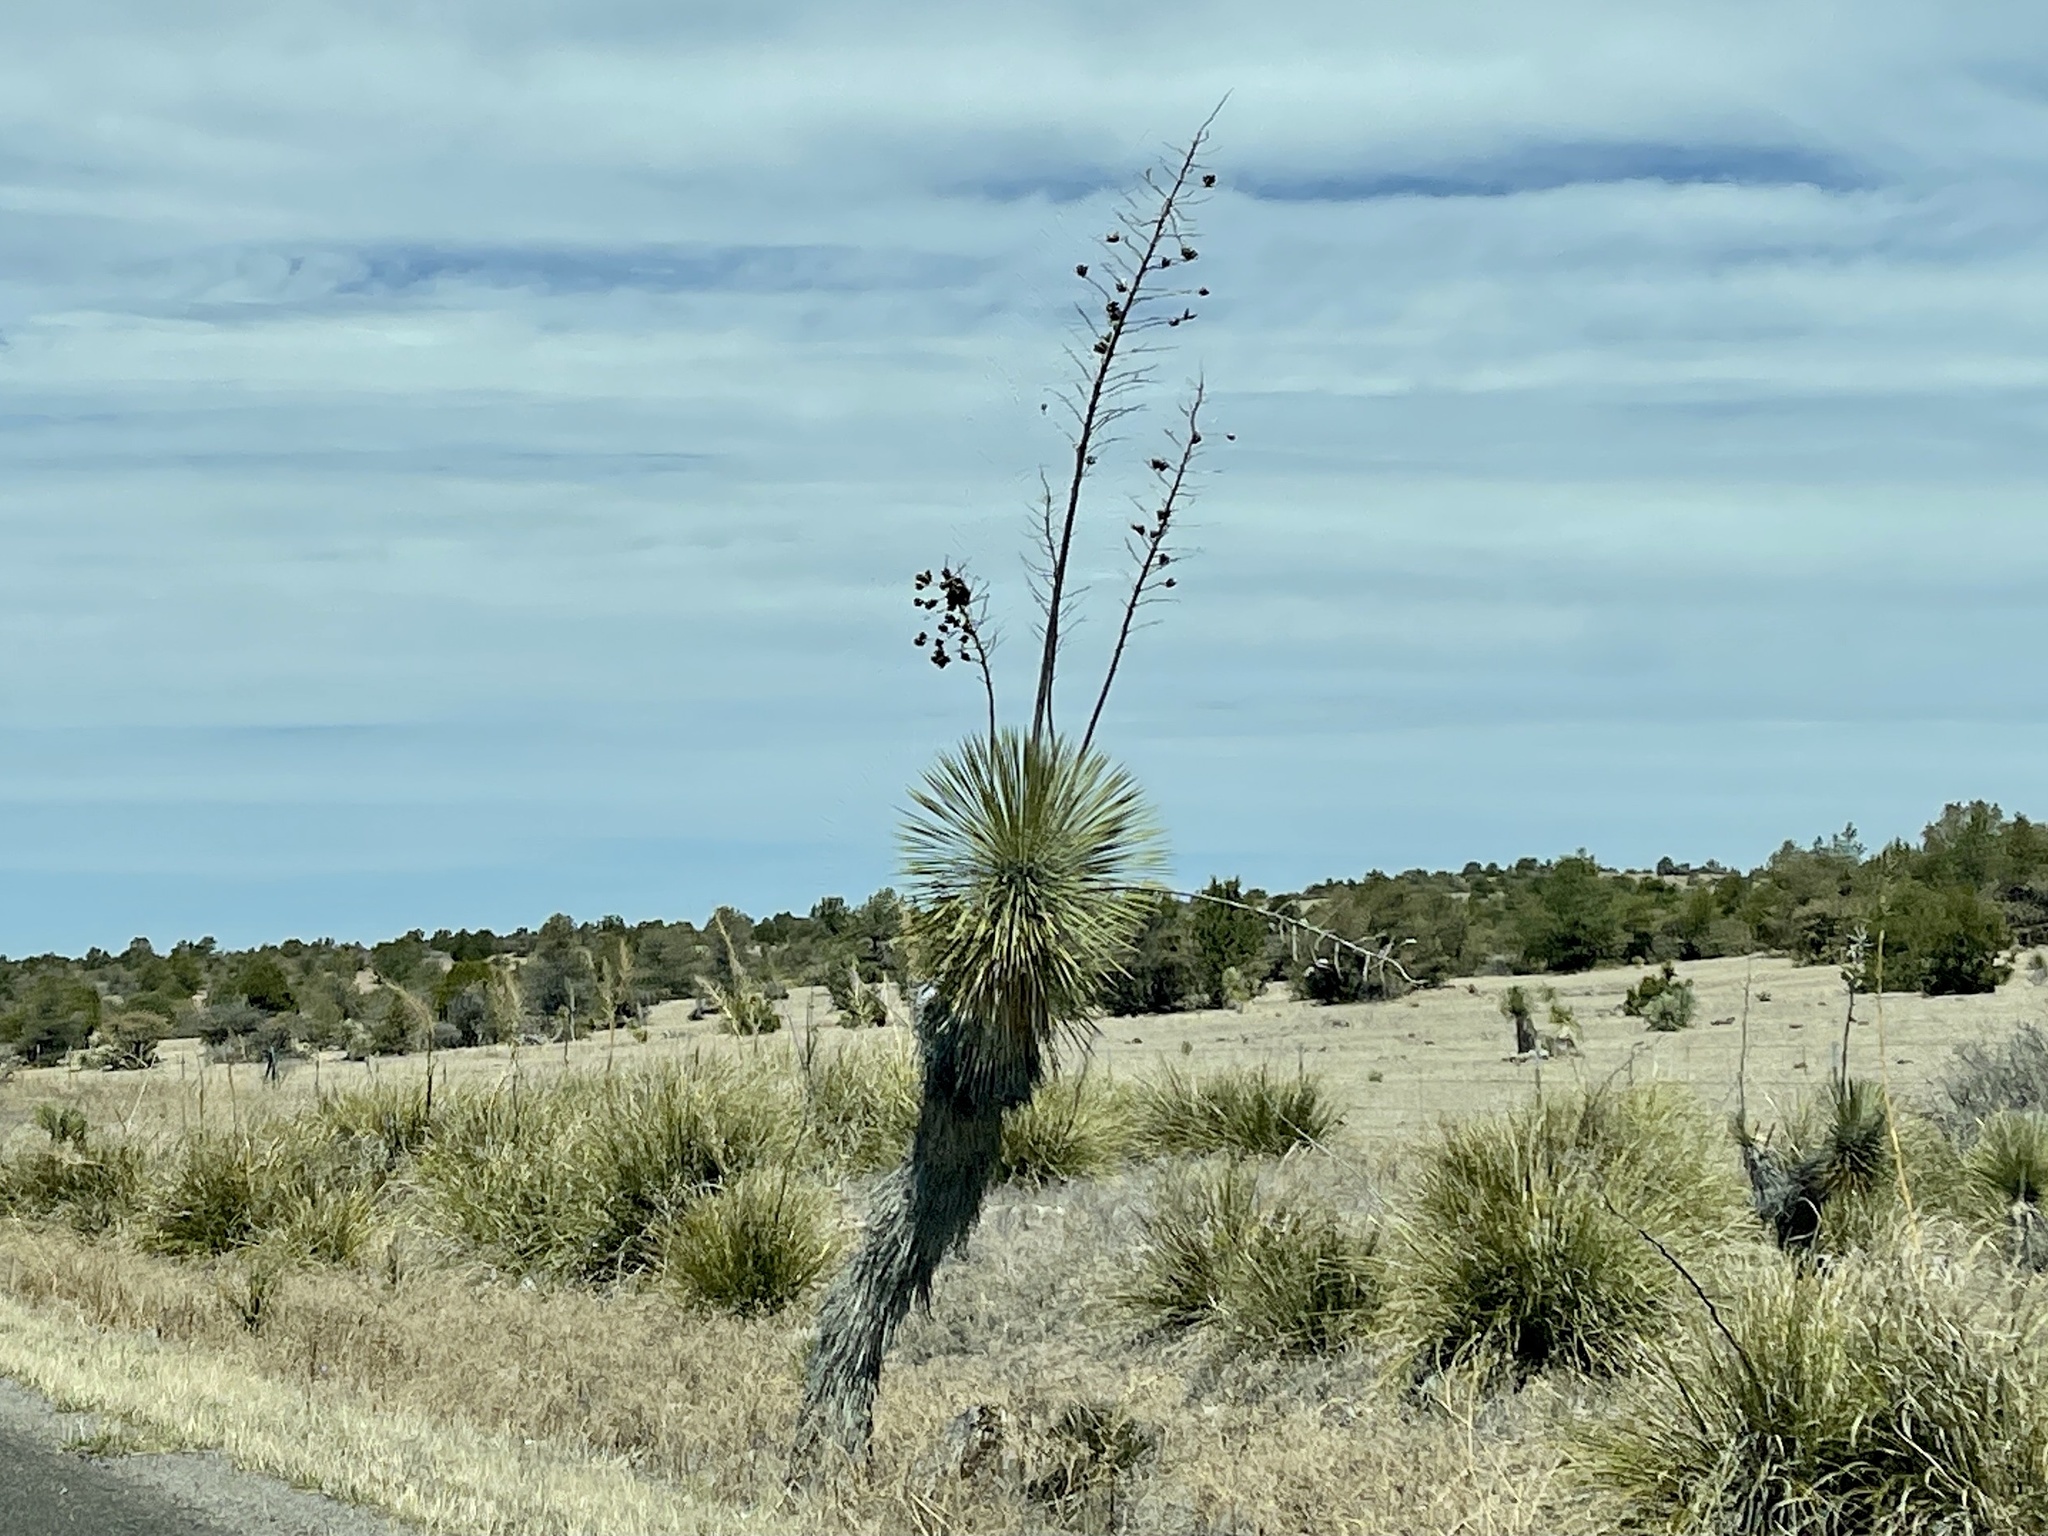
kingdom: Plantae
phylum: Tracheophyta
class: Liliopsida
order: Asparagales
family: Asparagaceae
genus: Yucca
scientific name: Yucca elata
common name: Palmella
